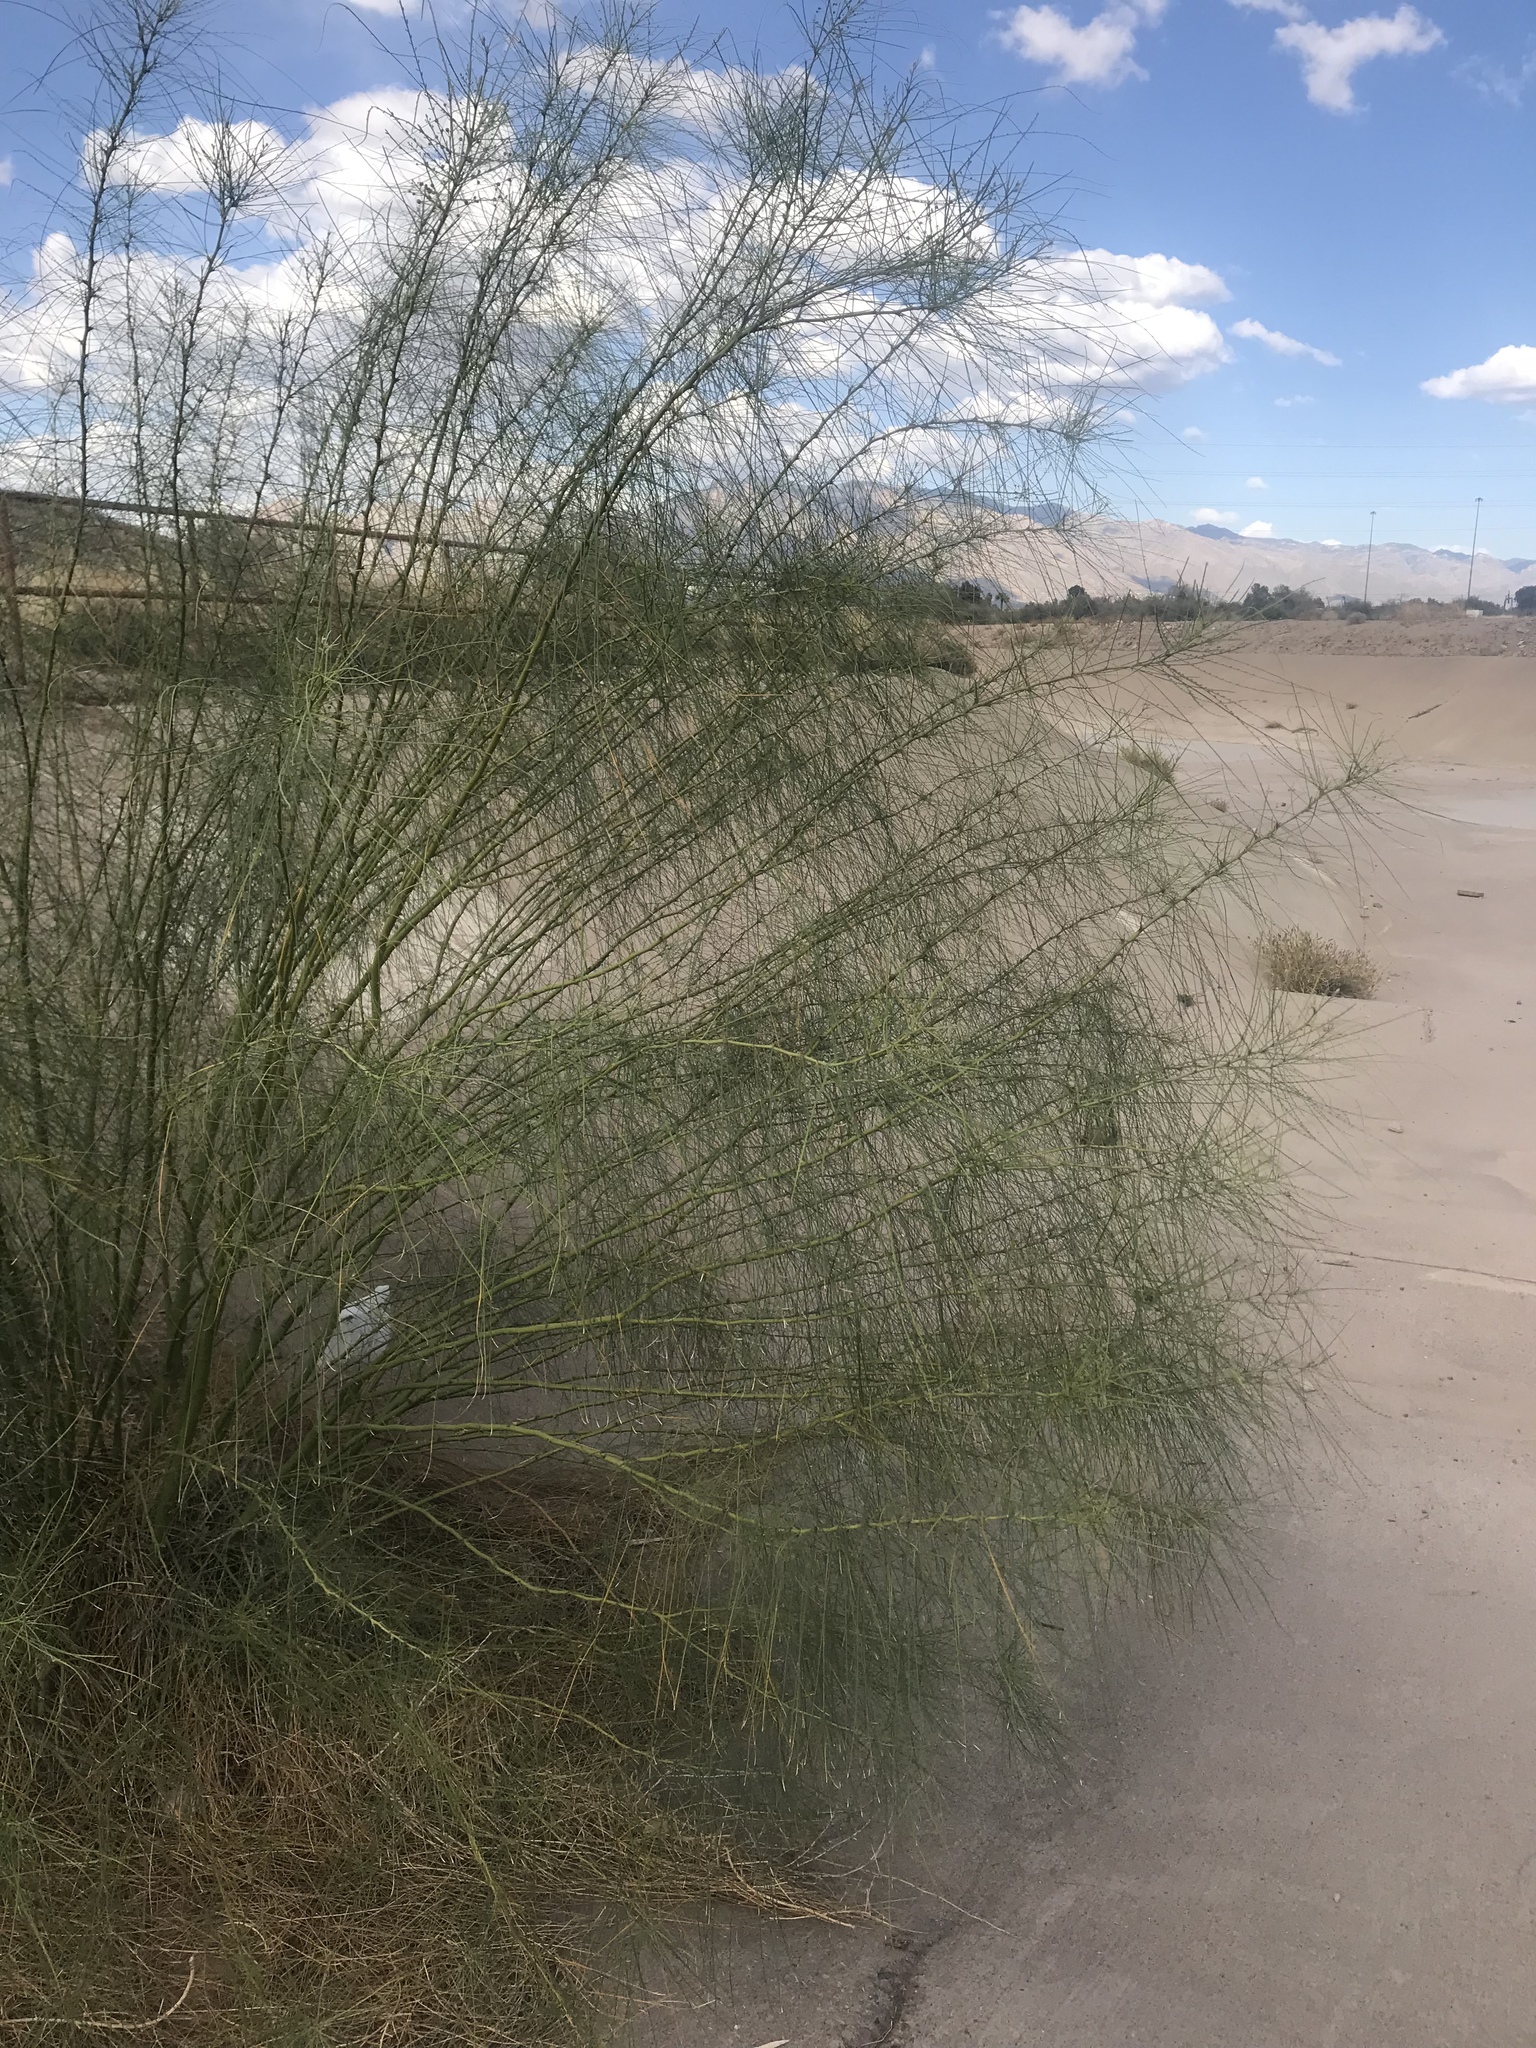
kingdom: Plantae
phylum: Tracheophyta
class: Magnoliopsida
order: Fabales
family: Fabaceae
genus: Parkinsonia
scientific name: Parkinsonia aculeata
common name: Jerusalem thorn
